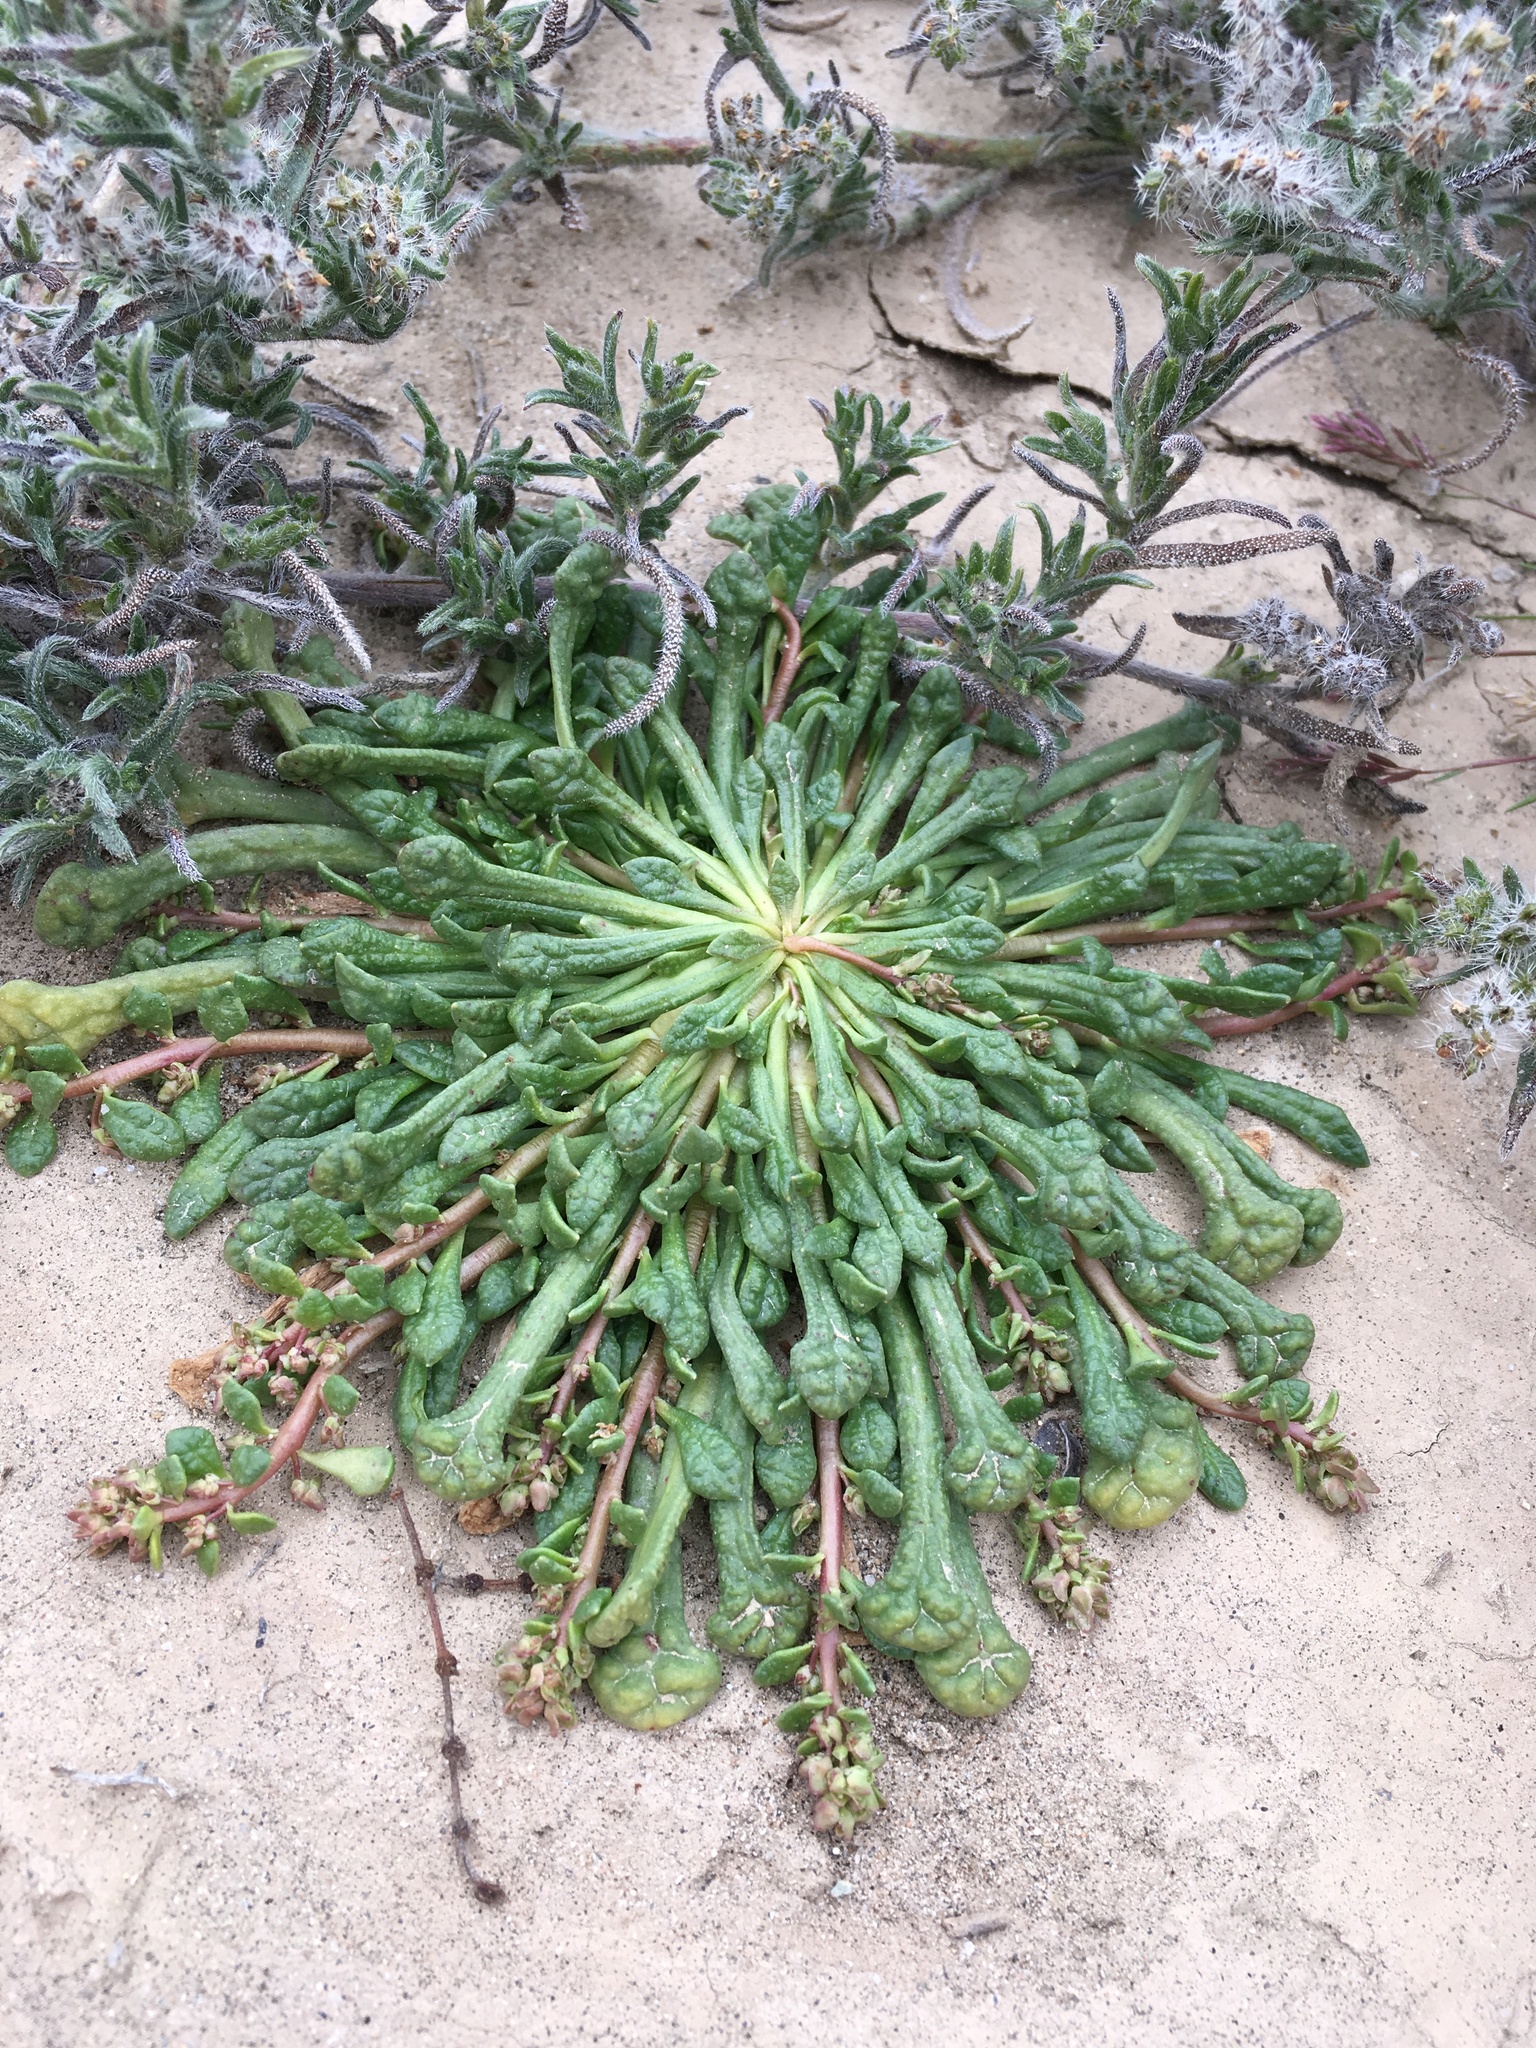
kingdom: Plantae
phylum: Tracheophyta
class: Magnoliopsida
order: Caryophyllales
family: Montiaceae
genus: Calyptridium
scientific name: Calyptridium monandrum
